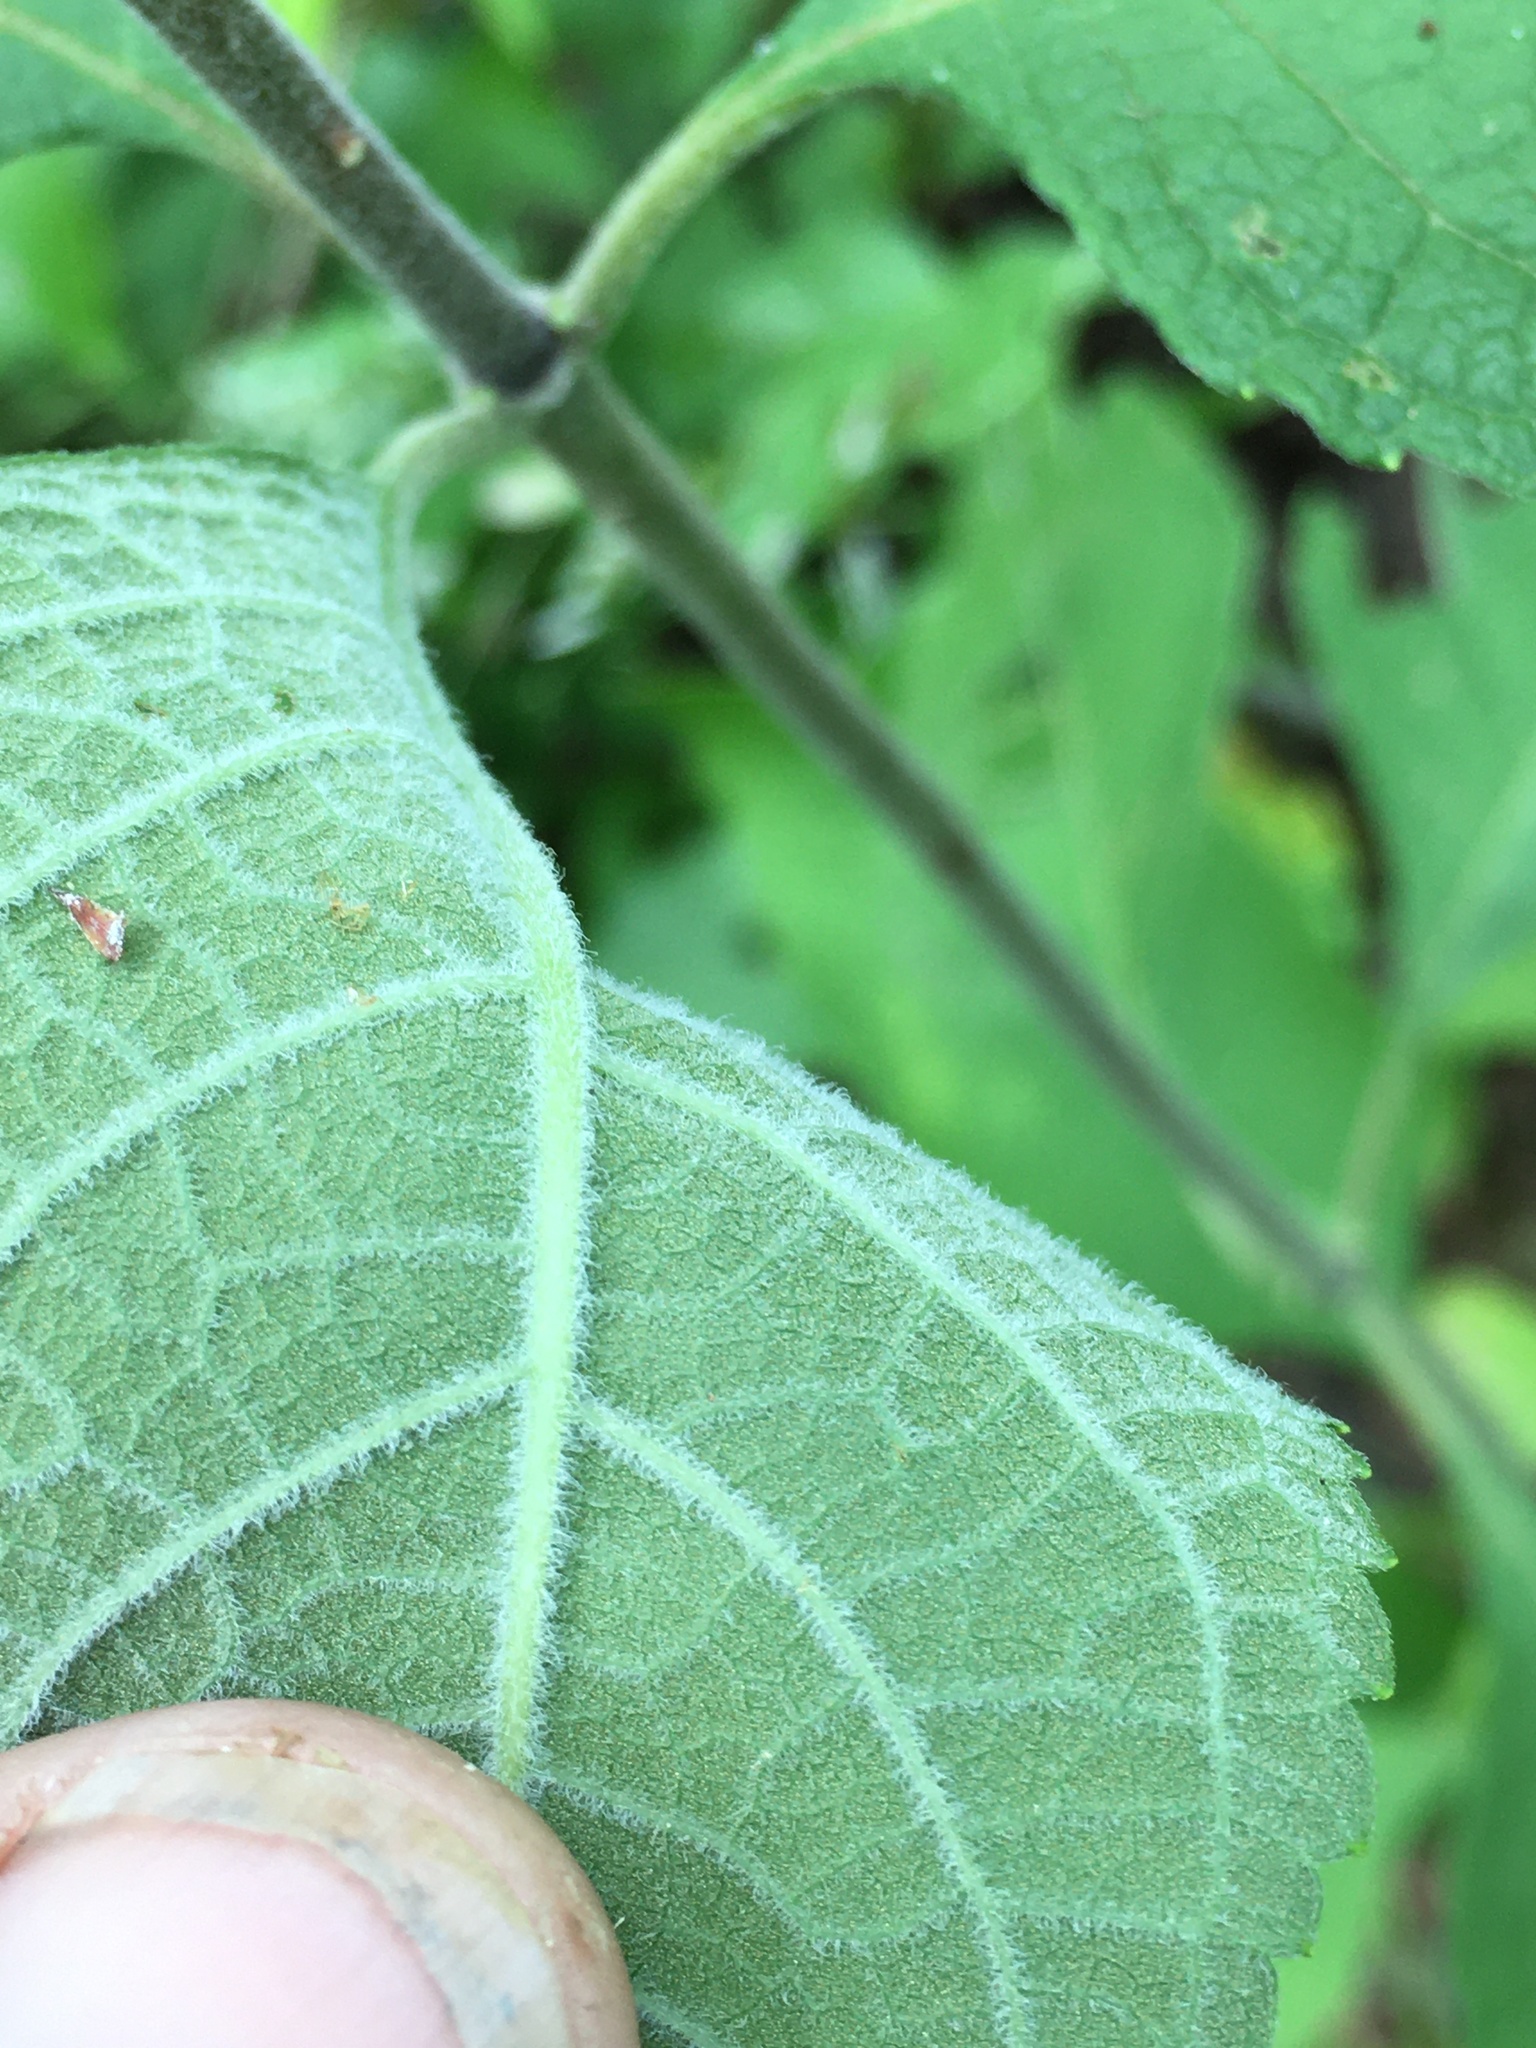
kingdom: Plantae
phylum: Tracheophyta
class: Magnoliopsida
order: Asterales
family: Asteraceae
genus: Eutrochium
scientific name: Eutrochium purpureum
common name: Gravelroot
